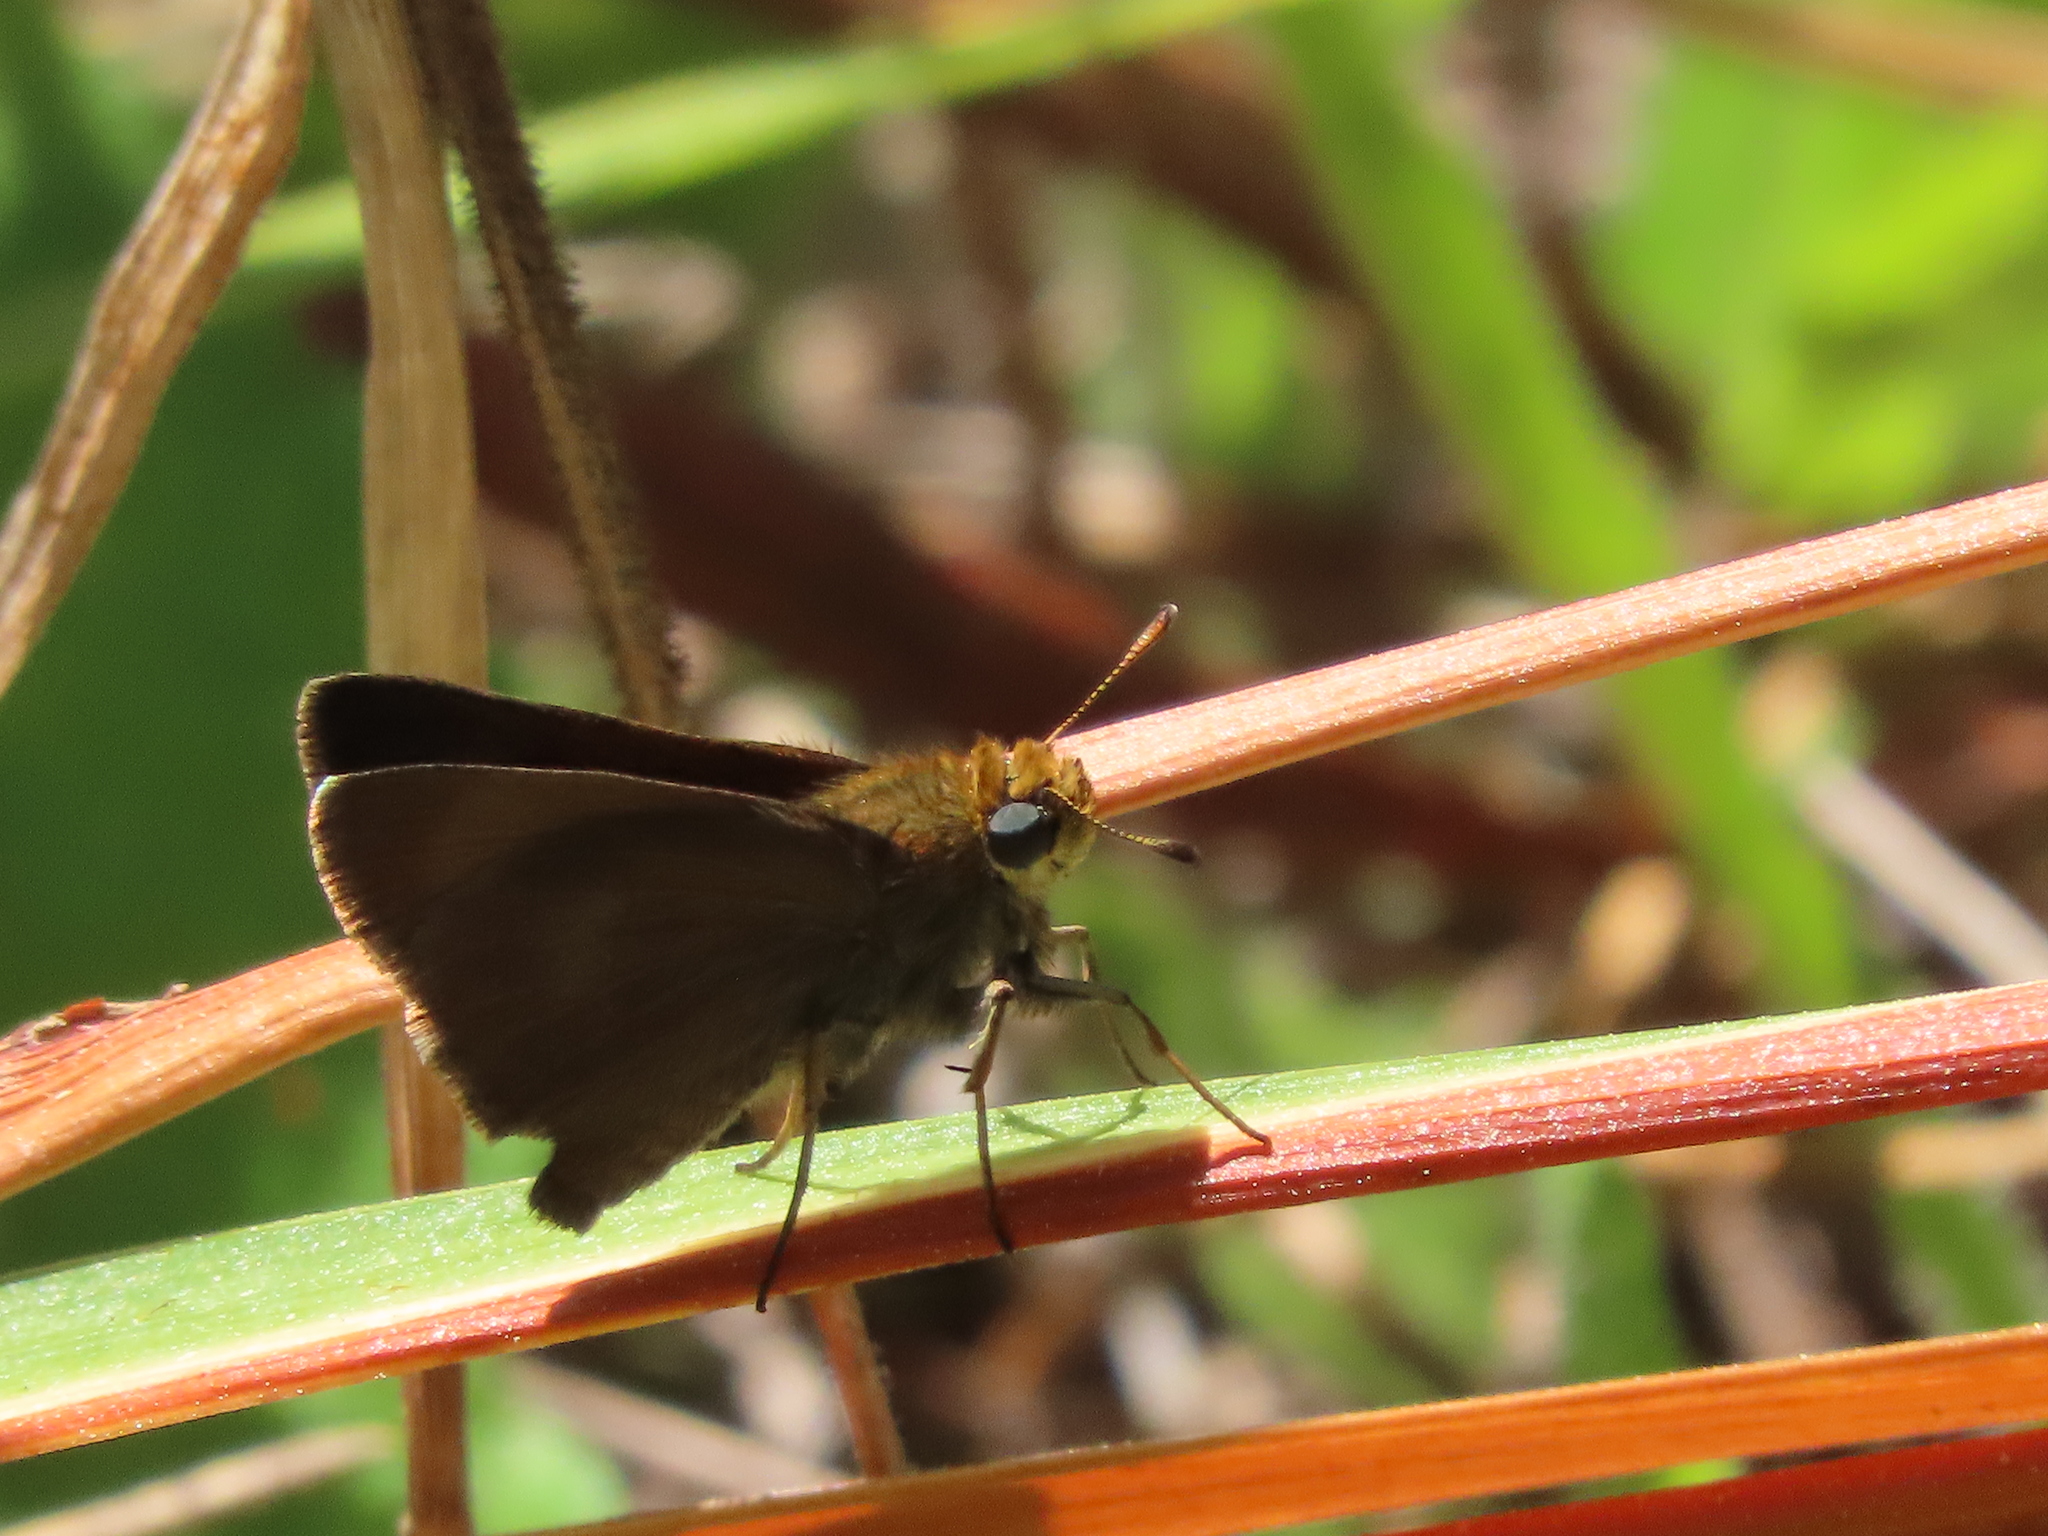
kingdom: Animalia
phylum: Arthropoda
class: Insecta
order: Lepidoptera
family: Hesperiidae
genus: Euphyes
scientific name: Euphyes vestris
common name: Dun skipper
